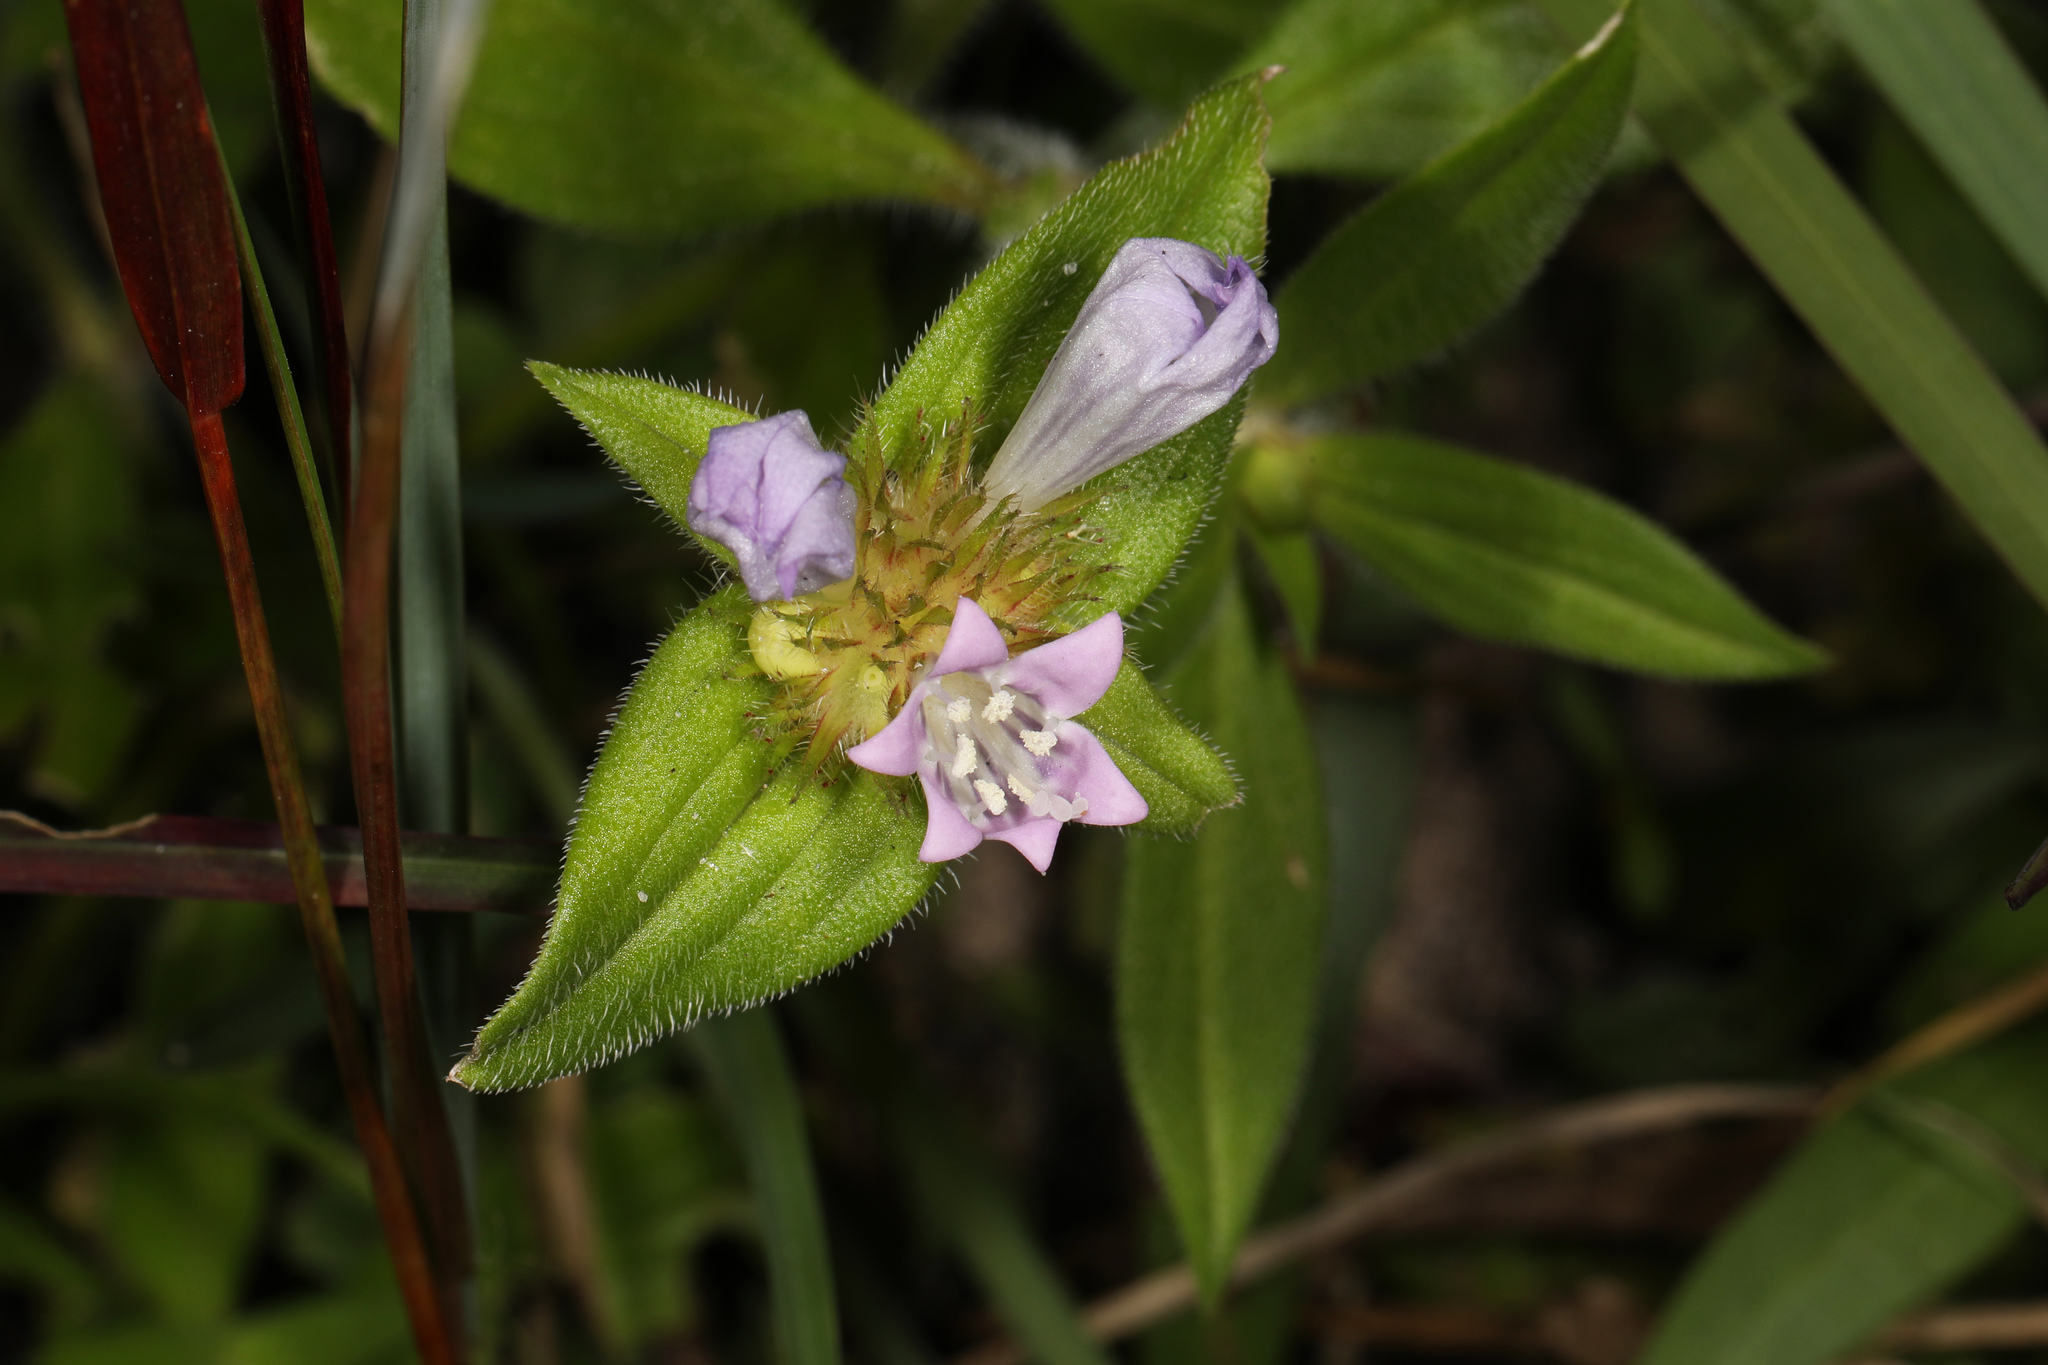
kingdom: Plantae
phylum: Tracheophyta
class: Magnoliopsida
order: Gentianales
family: Rubiaceae
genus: Richardia
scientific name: Richardia grandiflora
